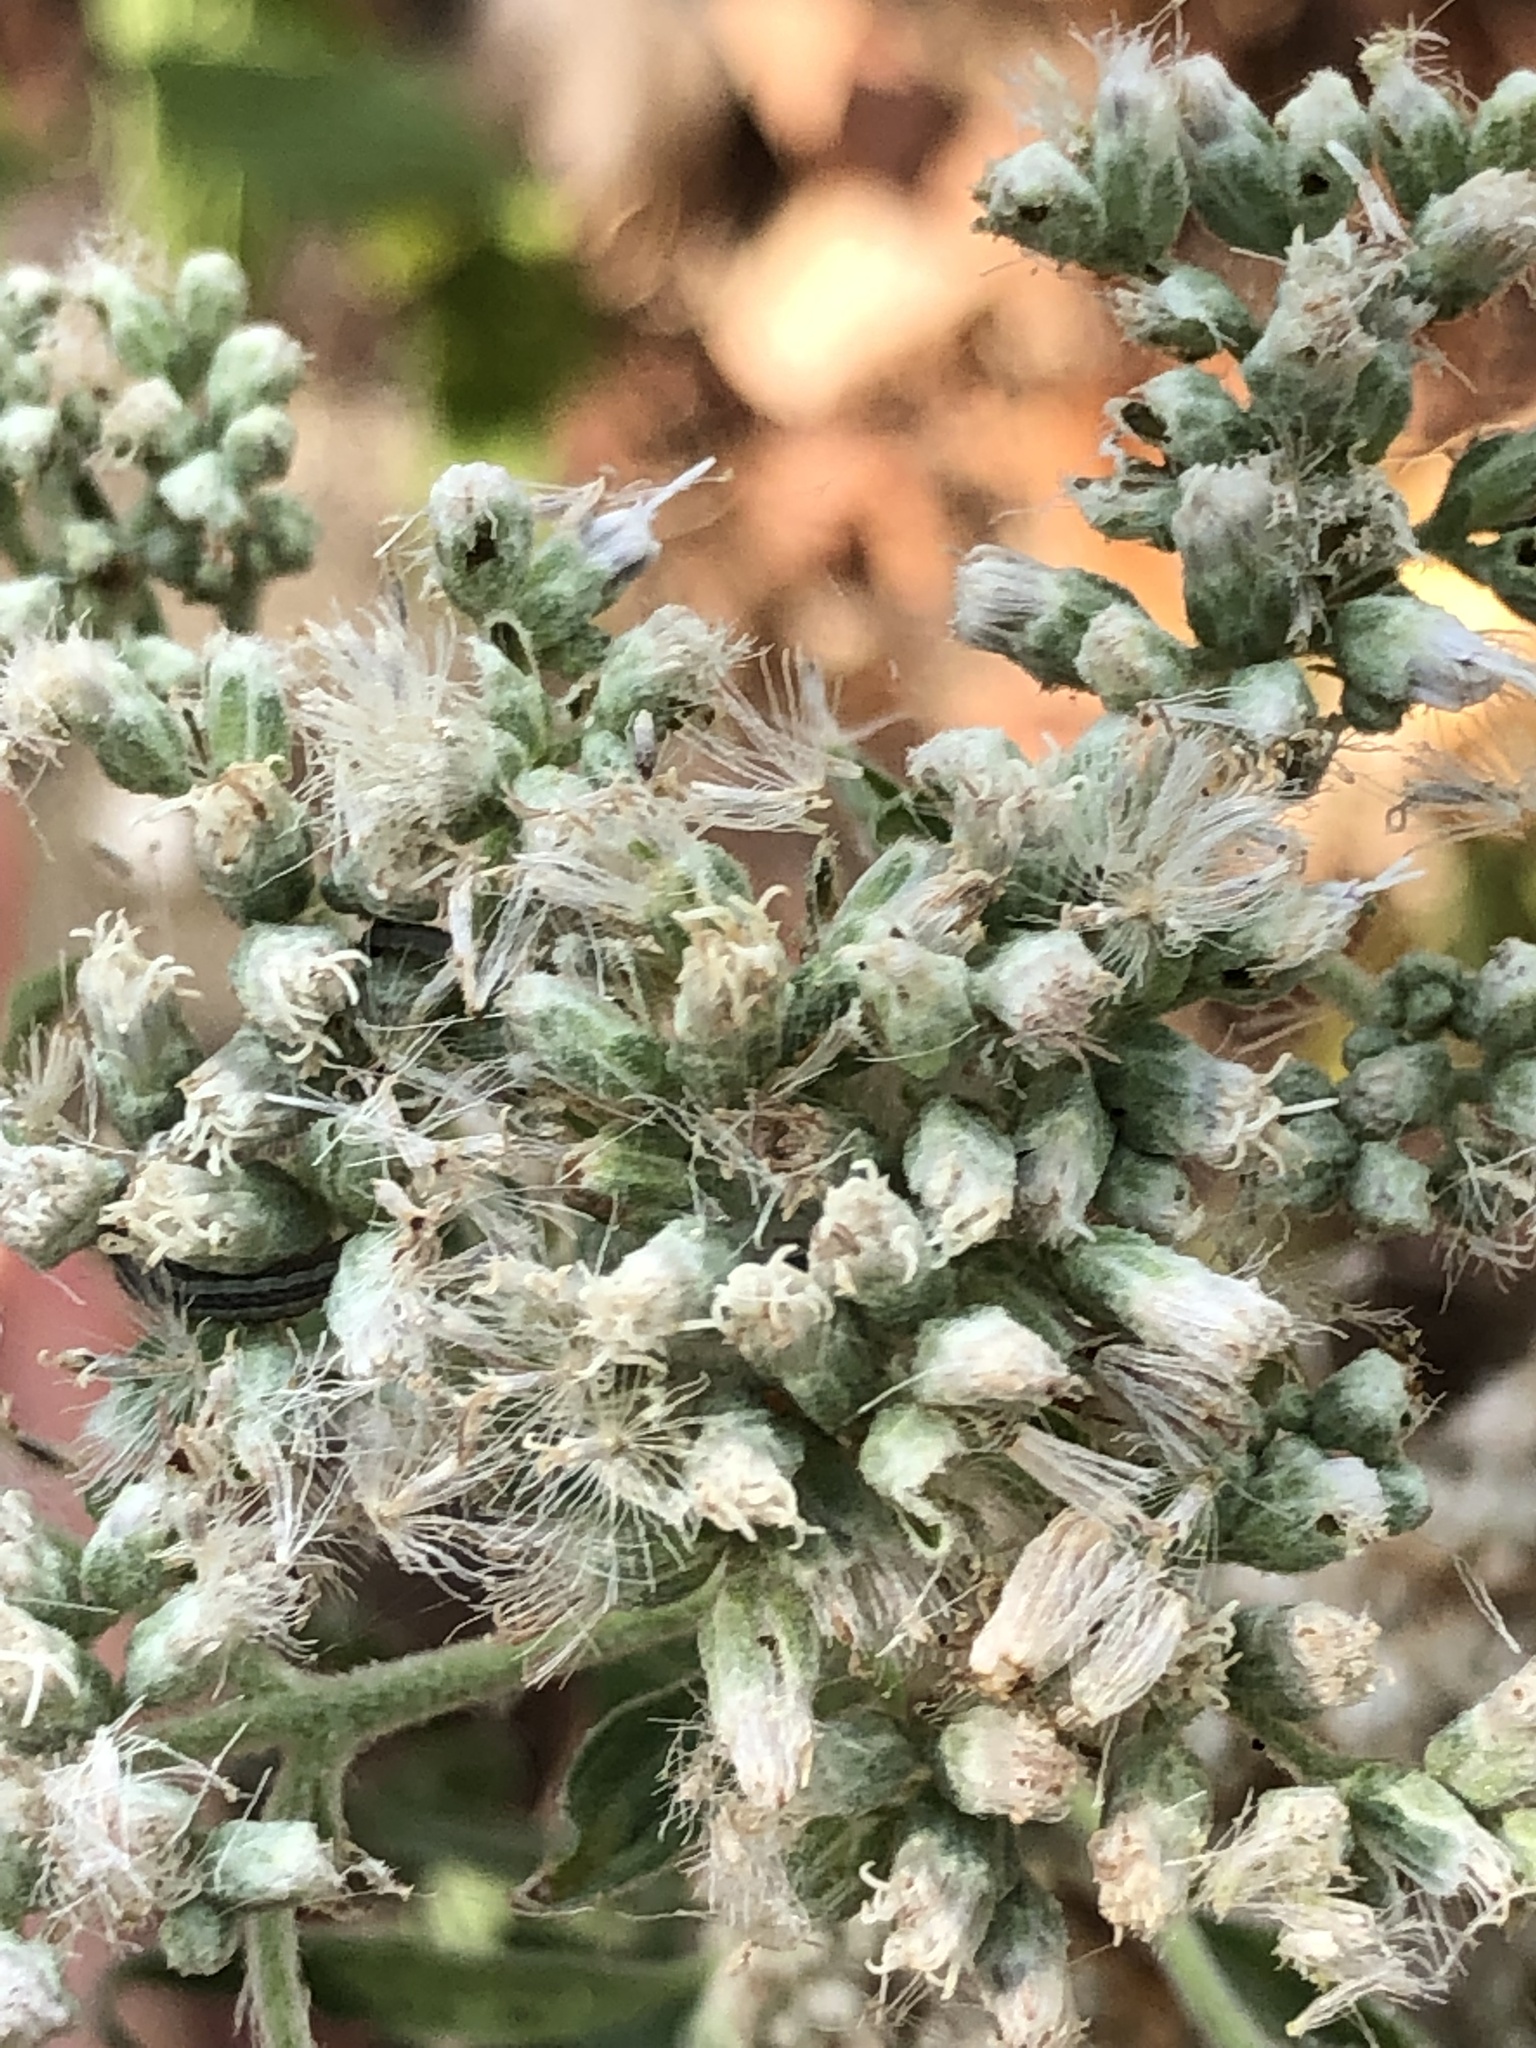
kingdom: Plantae
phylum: Tracheophyta
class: Magnoliopsida
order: Asterales
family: Asteraceae
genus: Eupatorium
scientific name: Eupatorium serotinum
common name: Late boneset
